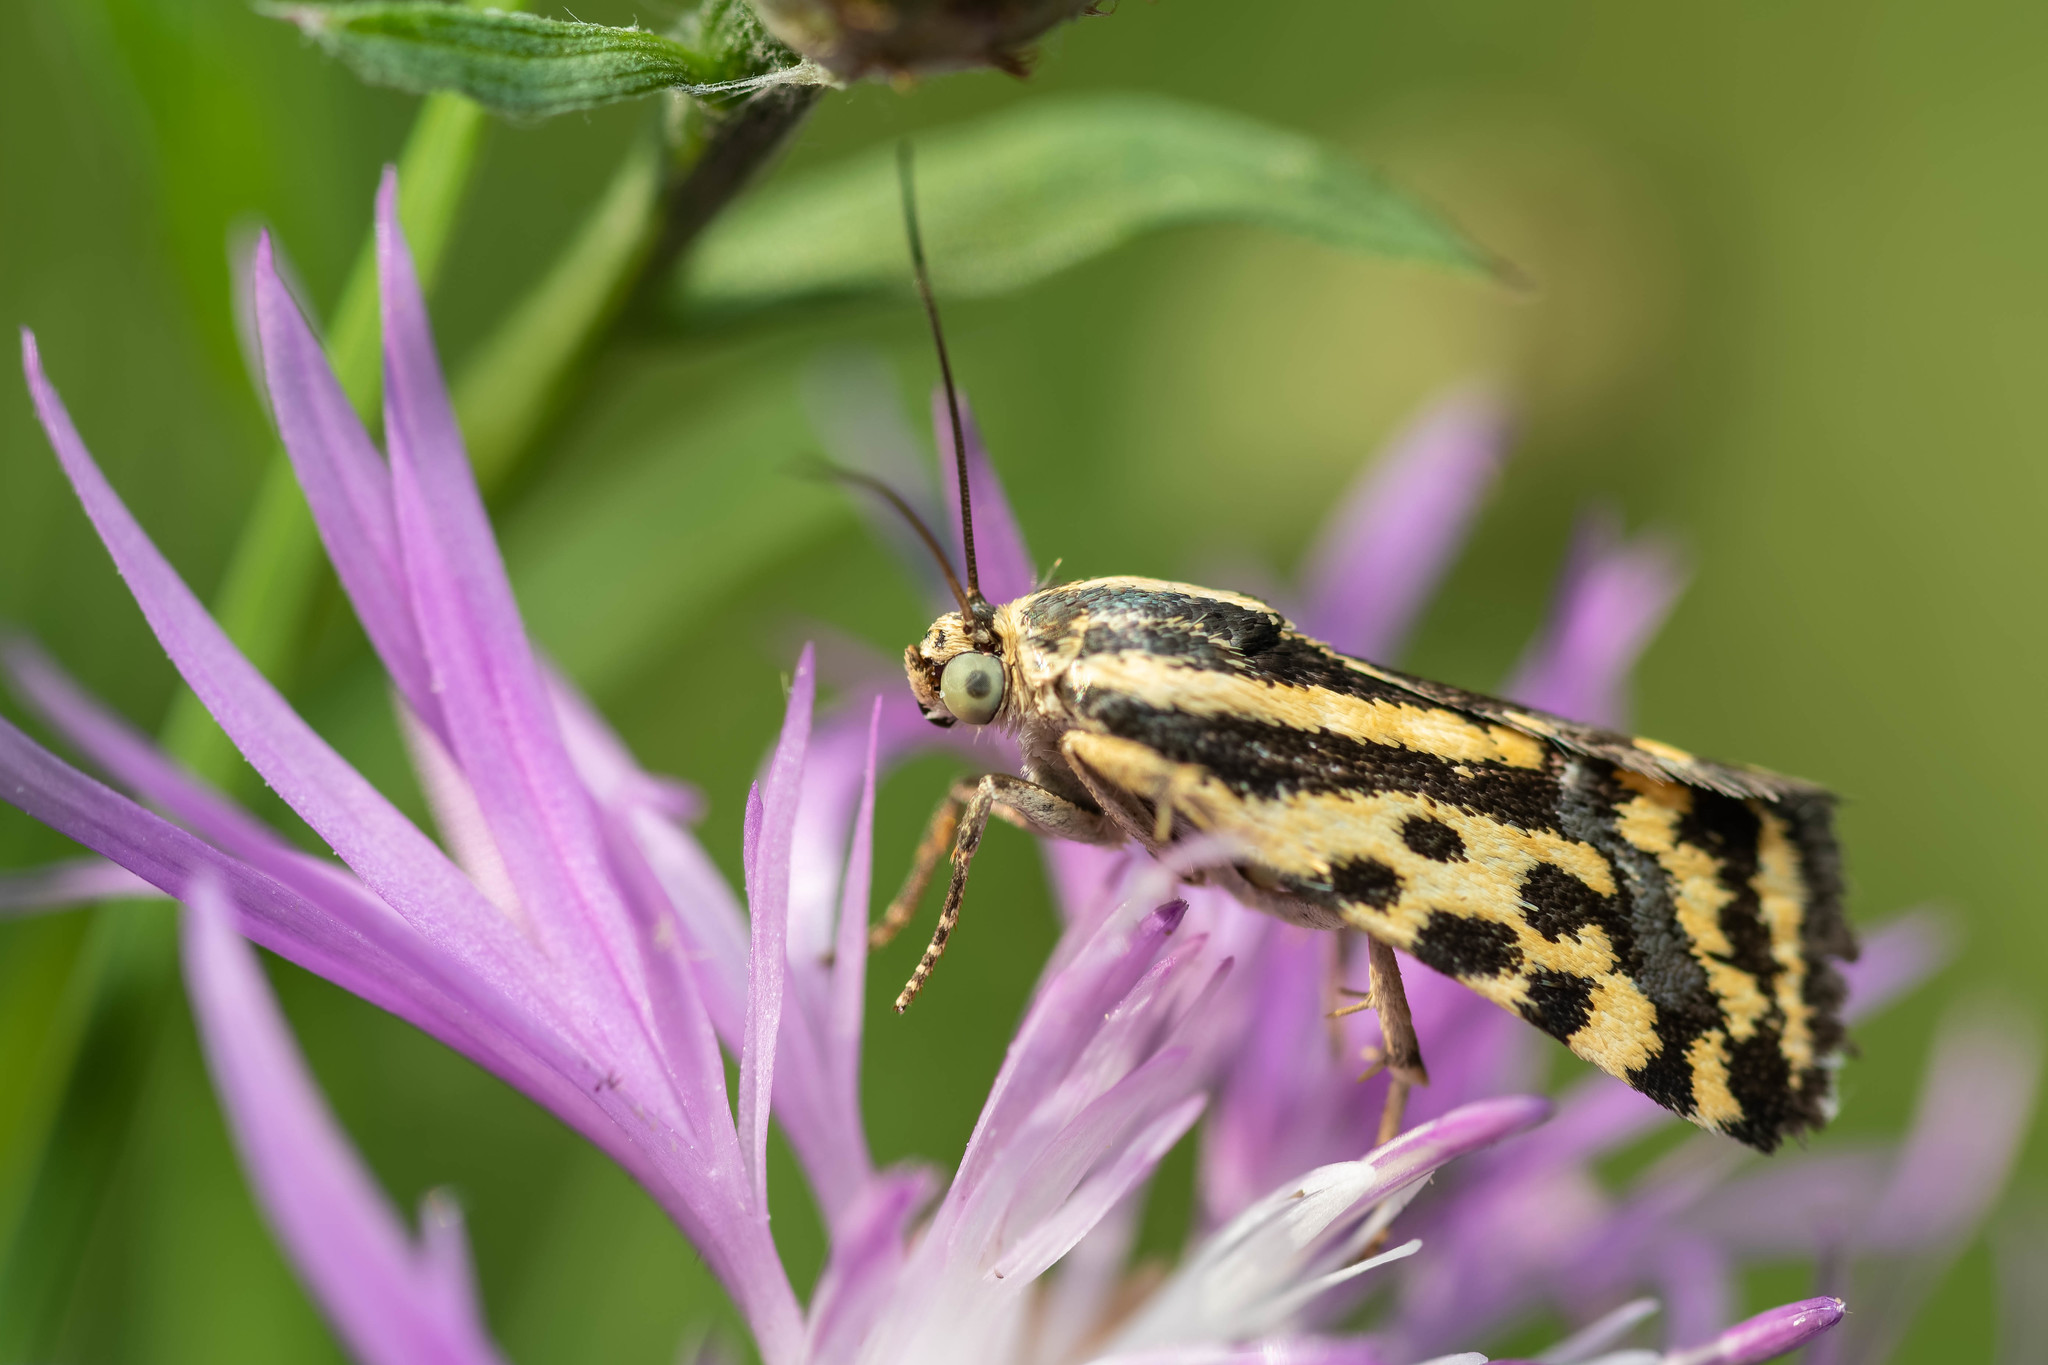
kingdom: Animalia
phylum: Arthropoda
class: Insecta
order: Lepidoptera
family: Noctuidae
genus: Acontia
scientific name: Acontia trabealis
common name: Spotted sulphur
